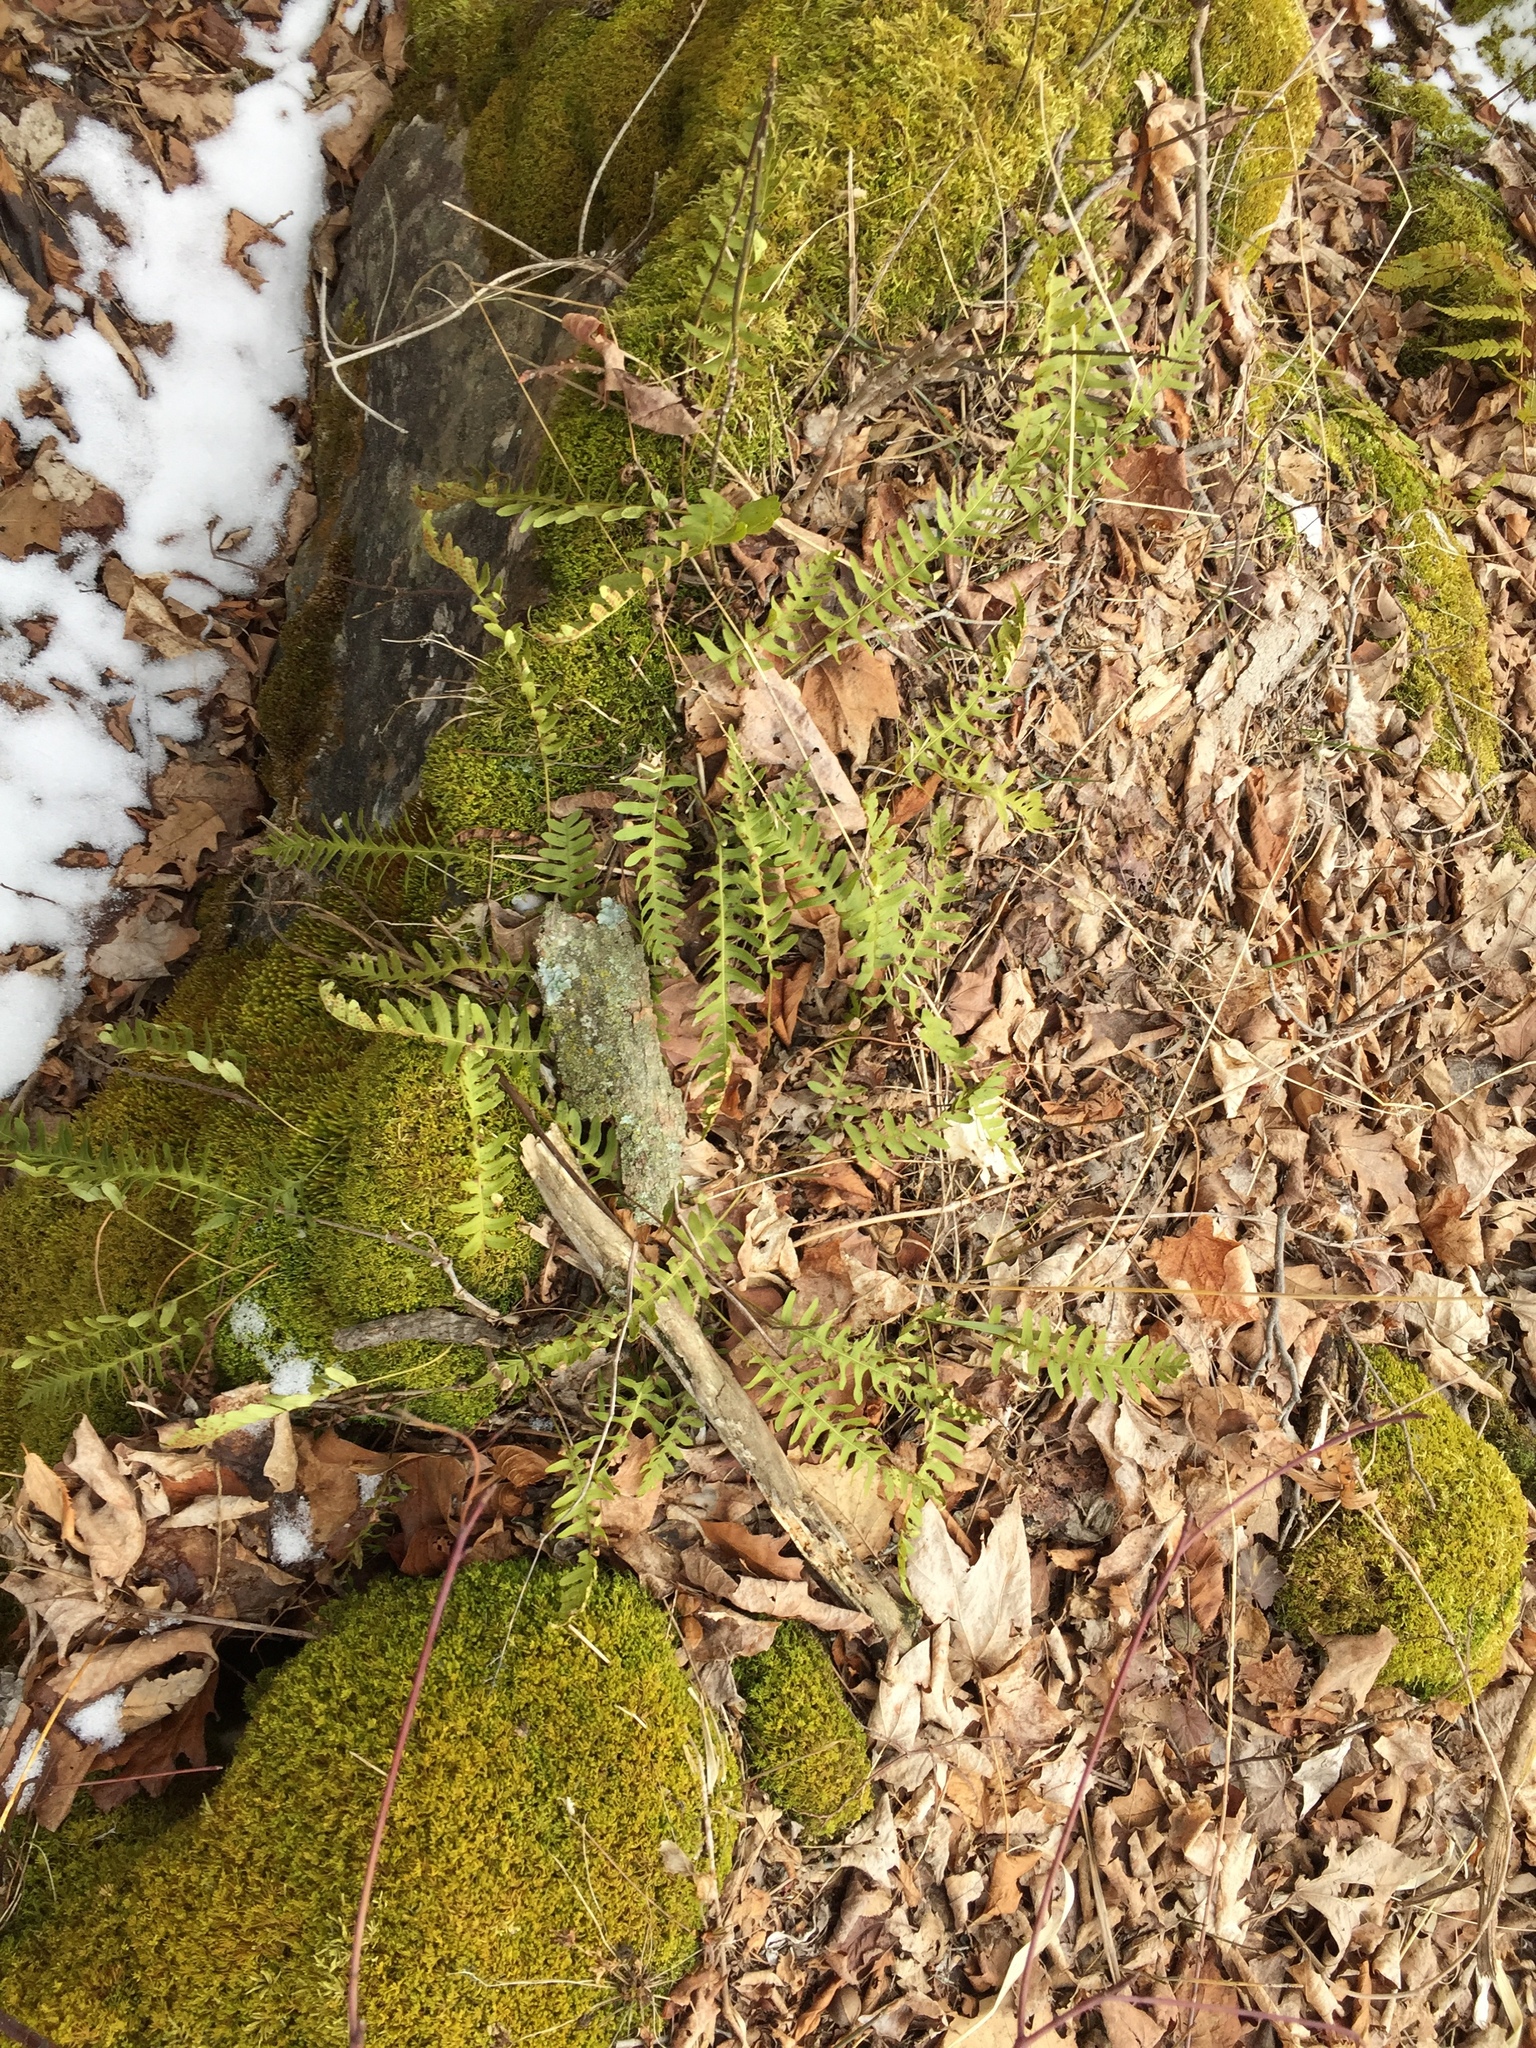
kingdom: Plantae
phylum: Tracheophyta
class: Polypodiopsida
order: Polypodiales
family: Polypodiaceae
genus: Polypodium
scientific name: Polypodium virginianum
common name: American wall fern
